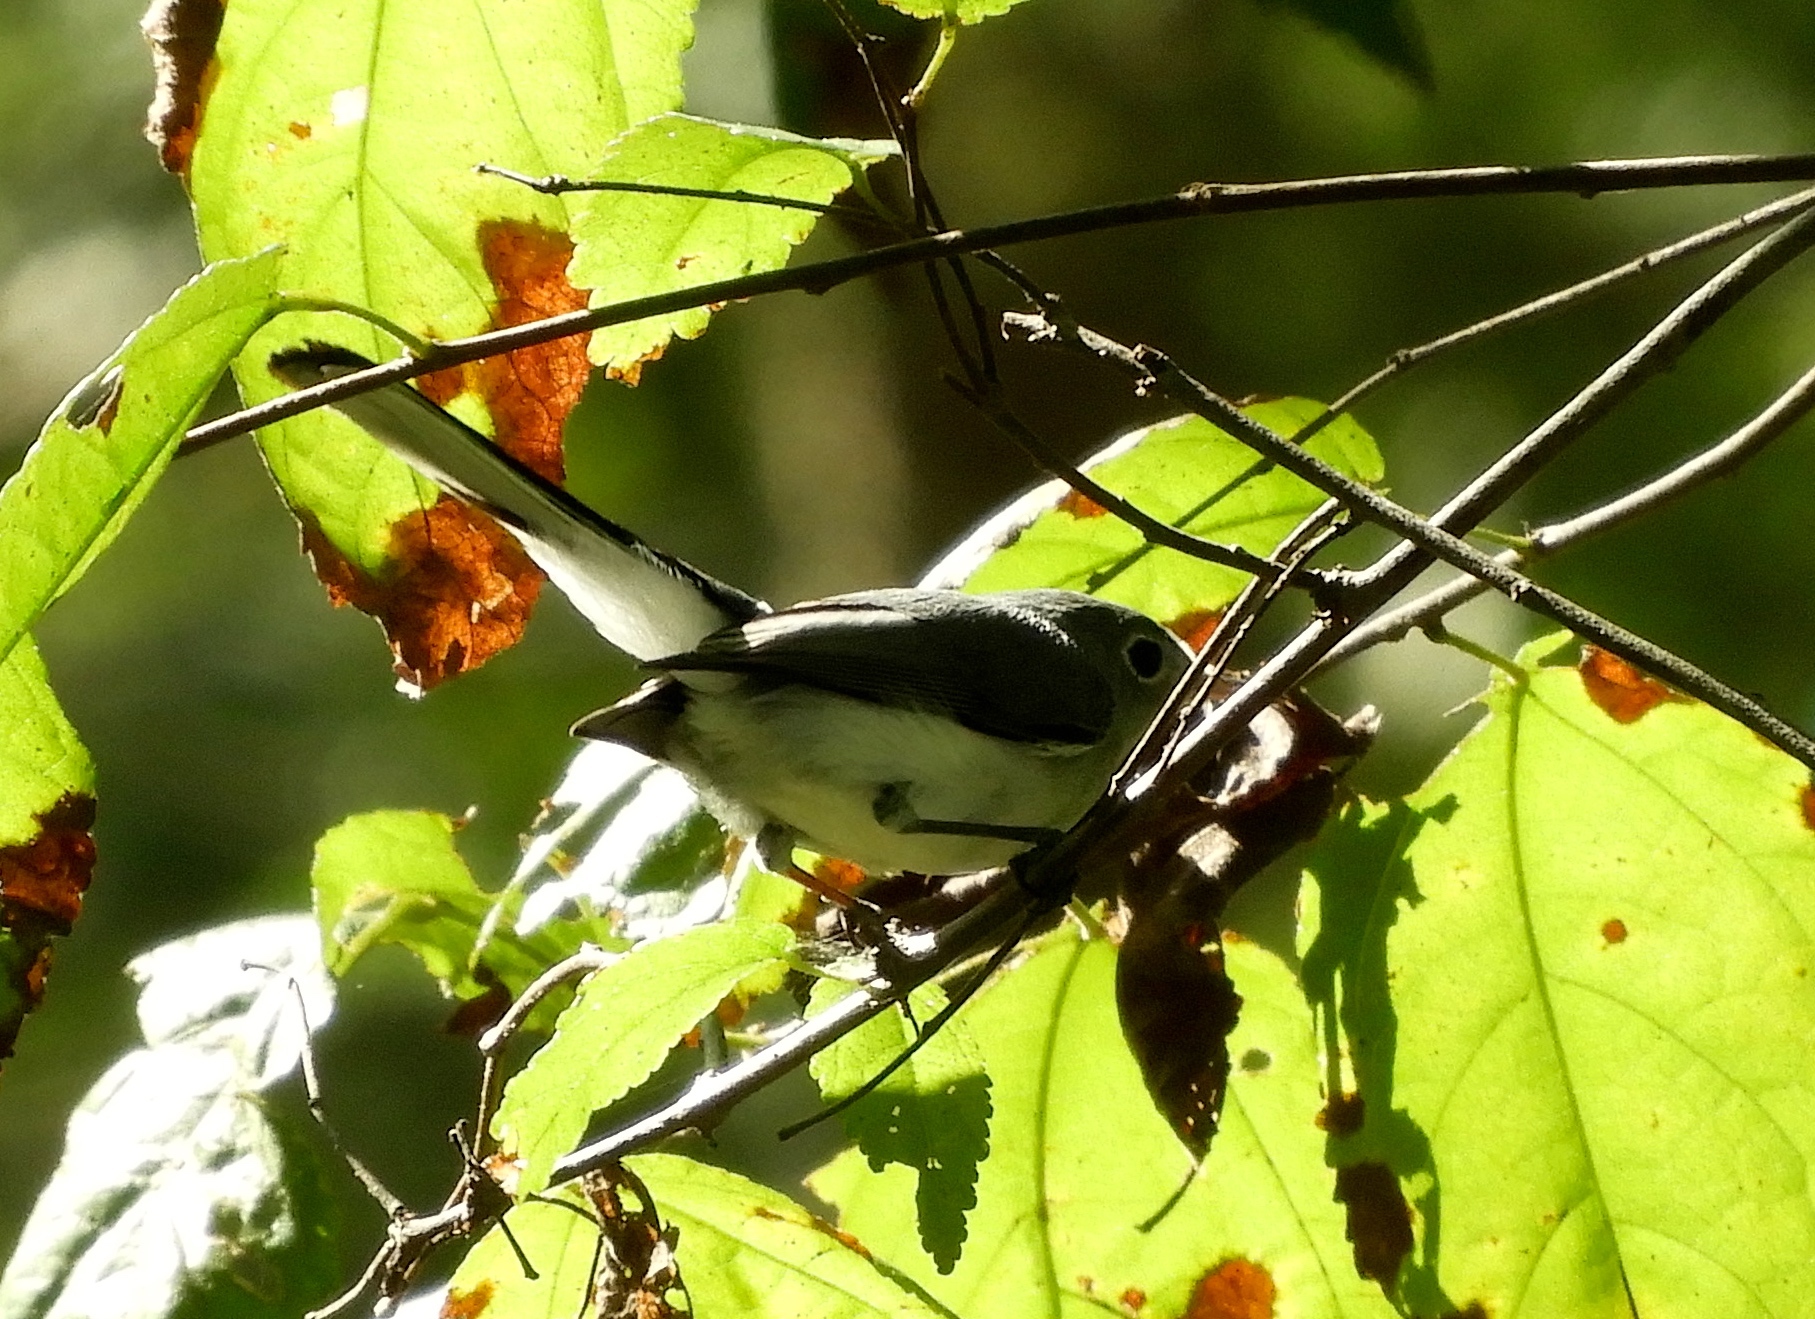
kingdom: Animalia
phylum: Chordata
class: Aves
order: Passeriformes
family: Polioptilidae
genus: Polioptila
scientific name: Polioptila caerulea
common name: Blue-gray gnatcatcher
